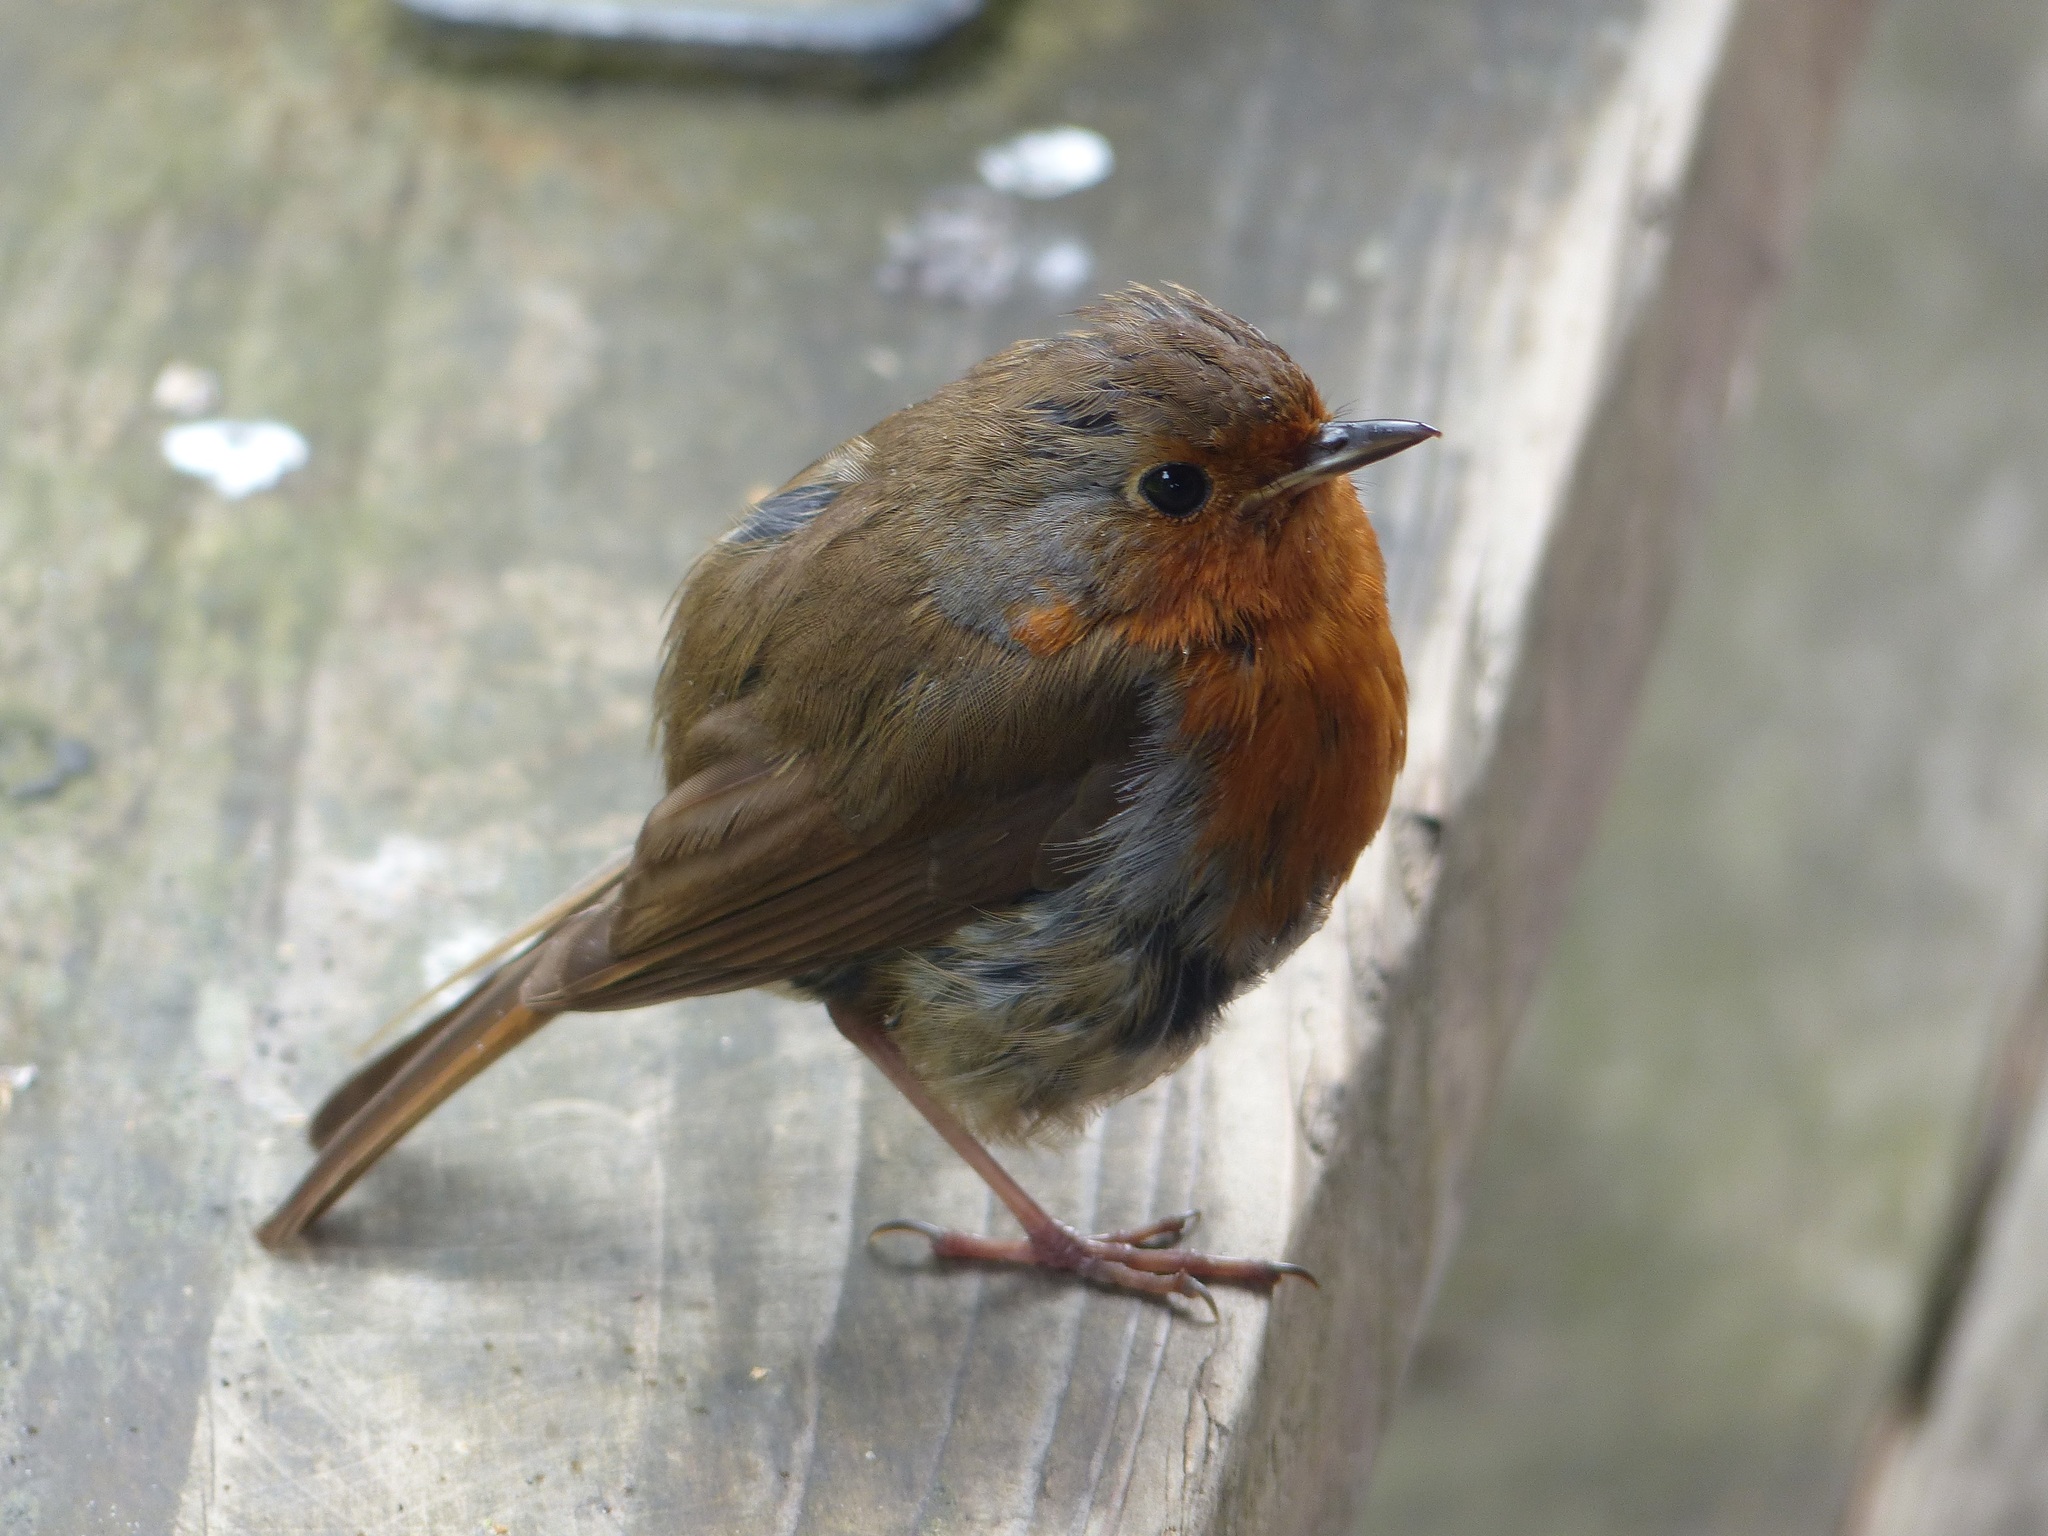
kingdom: Animalia
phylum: Chordata
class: Aves
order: Passeriformes
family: Muscicapidae
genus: Erithacus
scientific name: Erithacus rubecula
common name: European robin
